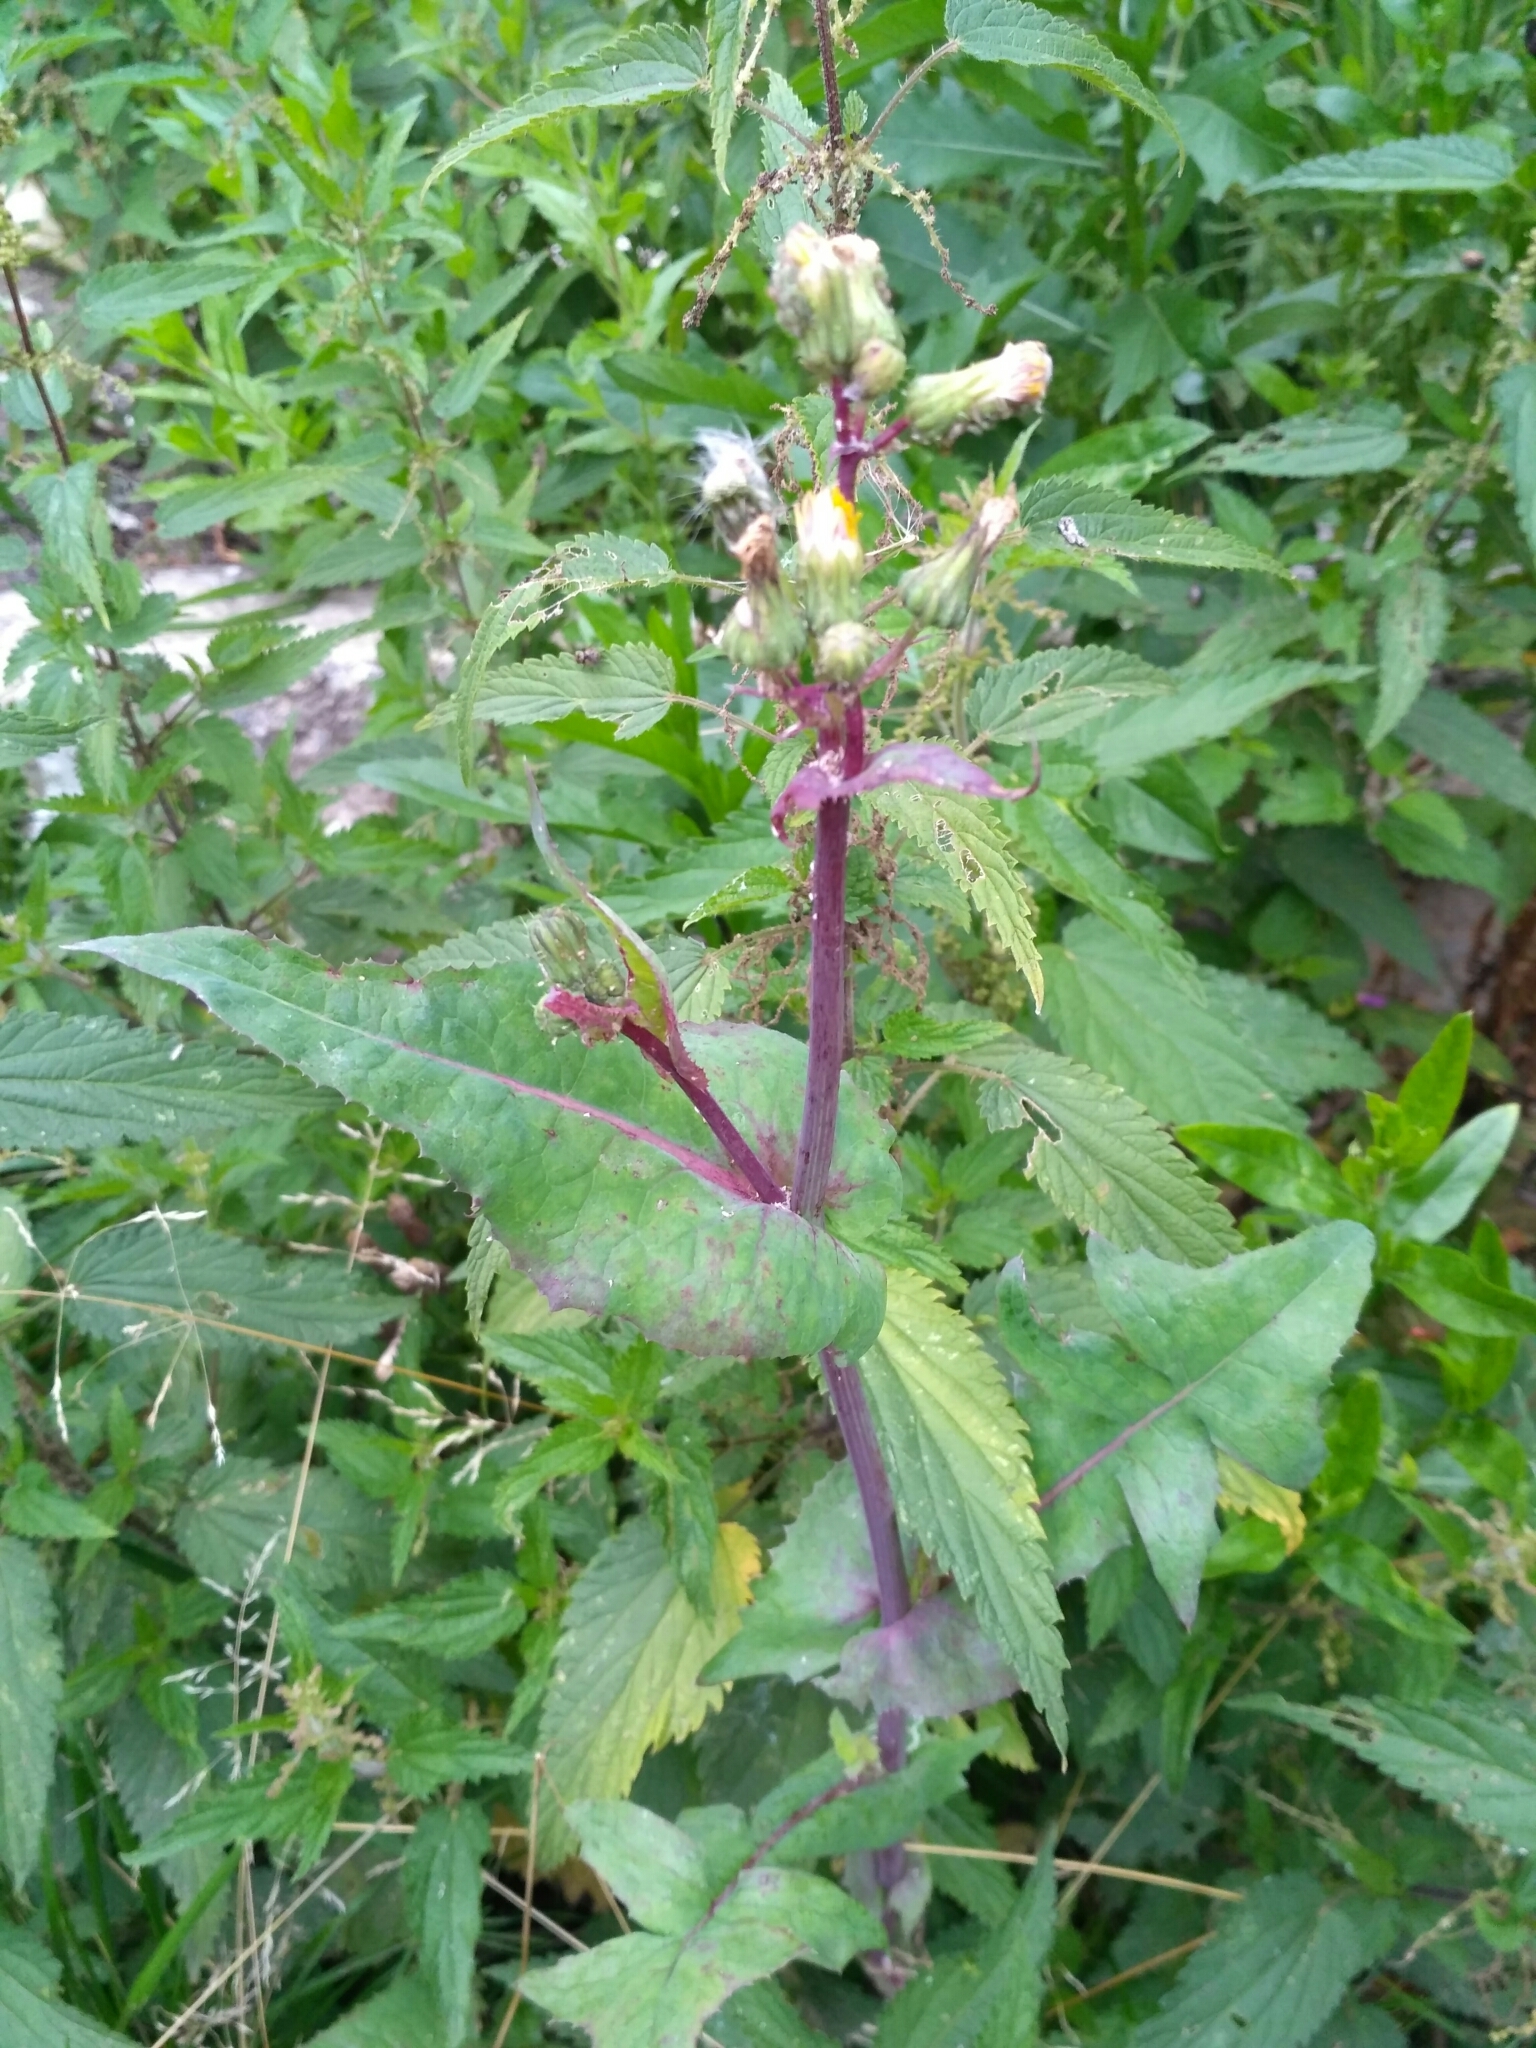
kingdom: Plantae
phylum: Tracheophyta
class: Magnoliopsida
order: Asterales
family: Asteraceae
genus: Sonchus
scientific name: Sonchus oleraceus
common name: Common sowthistle
